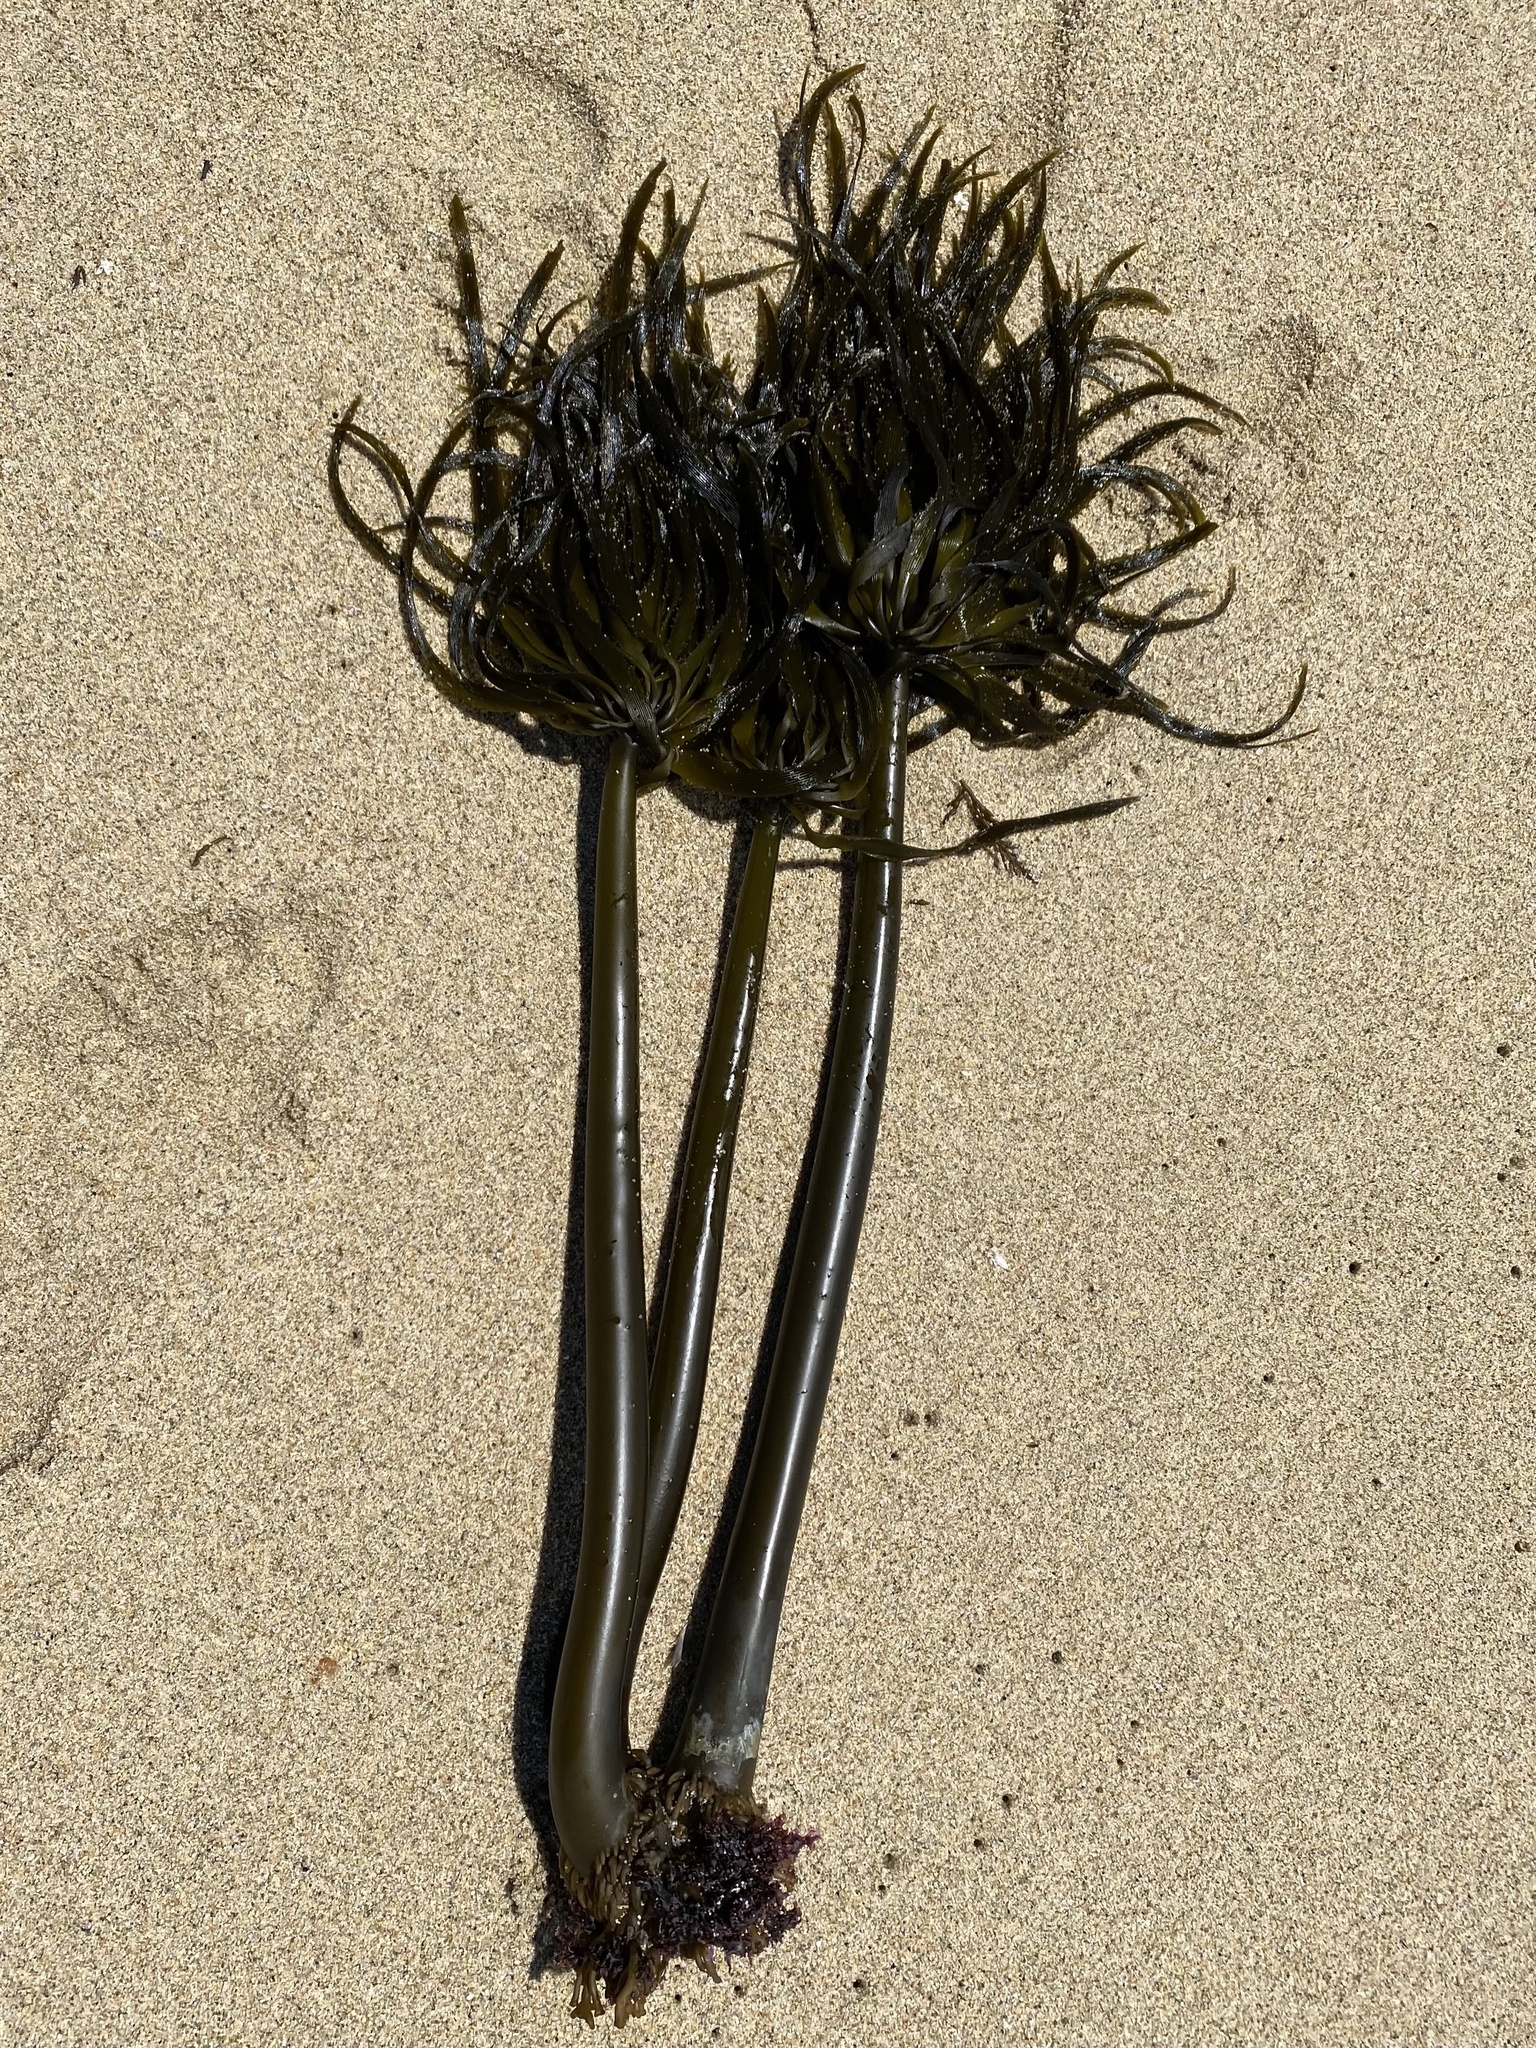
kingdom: Chromista
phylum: Ochrophyta
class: Phaeophyceae
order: Laminariales
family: Laminariaceae
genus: Postelsia
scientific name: Postelsia palmiformis
